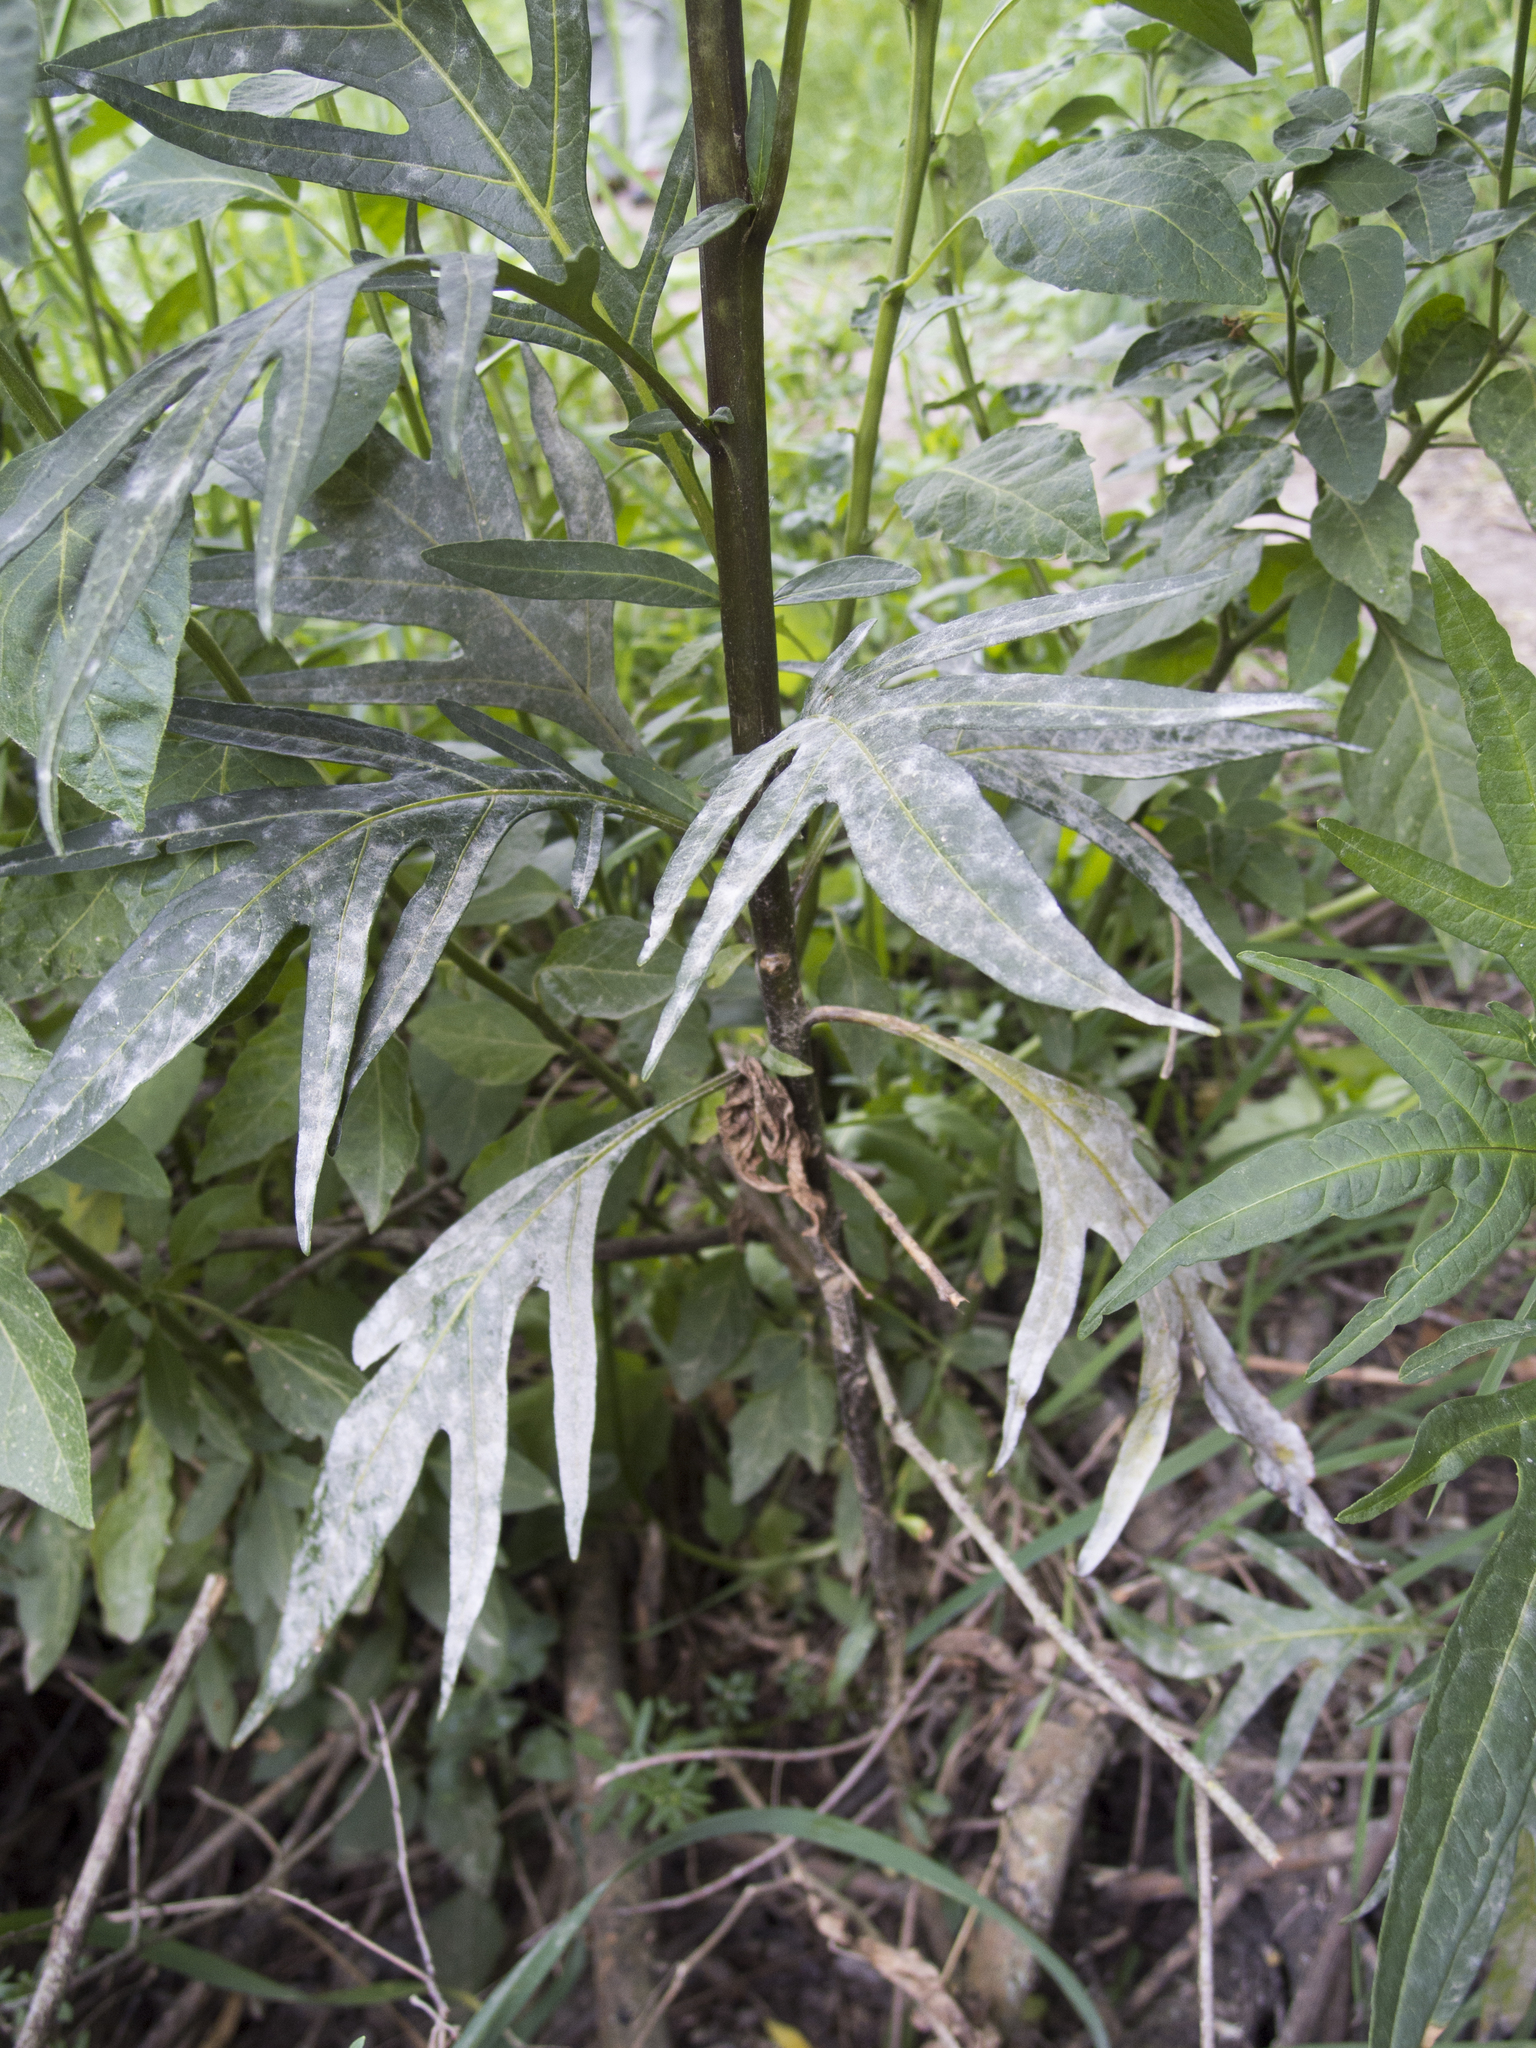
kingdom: Fungi
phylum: Ascomycota
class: Leotiomycetes
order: Helotiales
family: Erysiphaceae
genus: Golovinomyces
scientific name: Golovinomyces longipes
